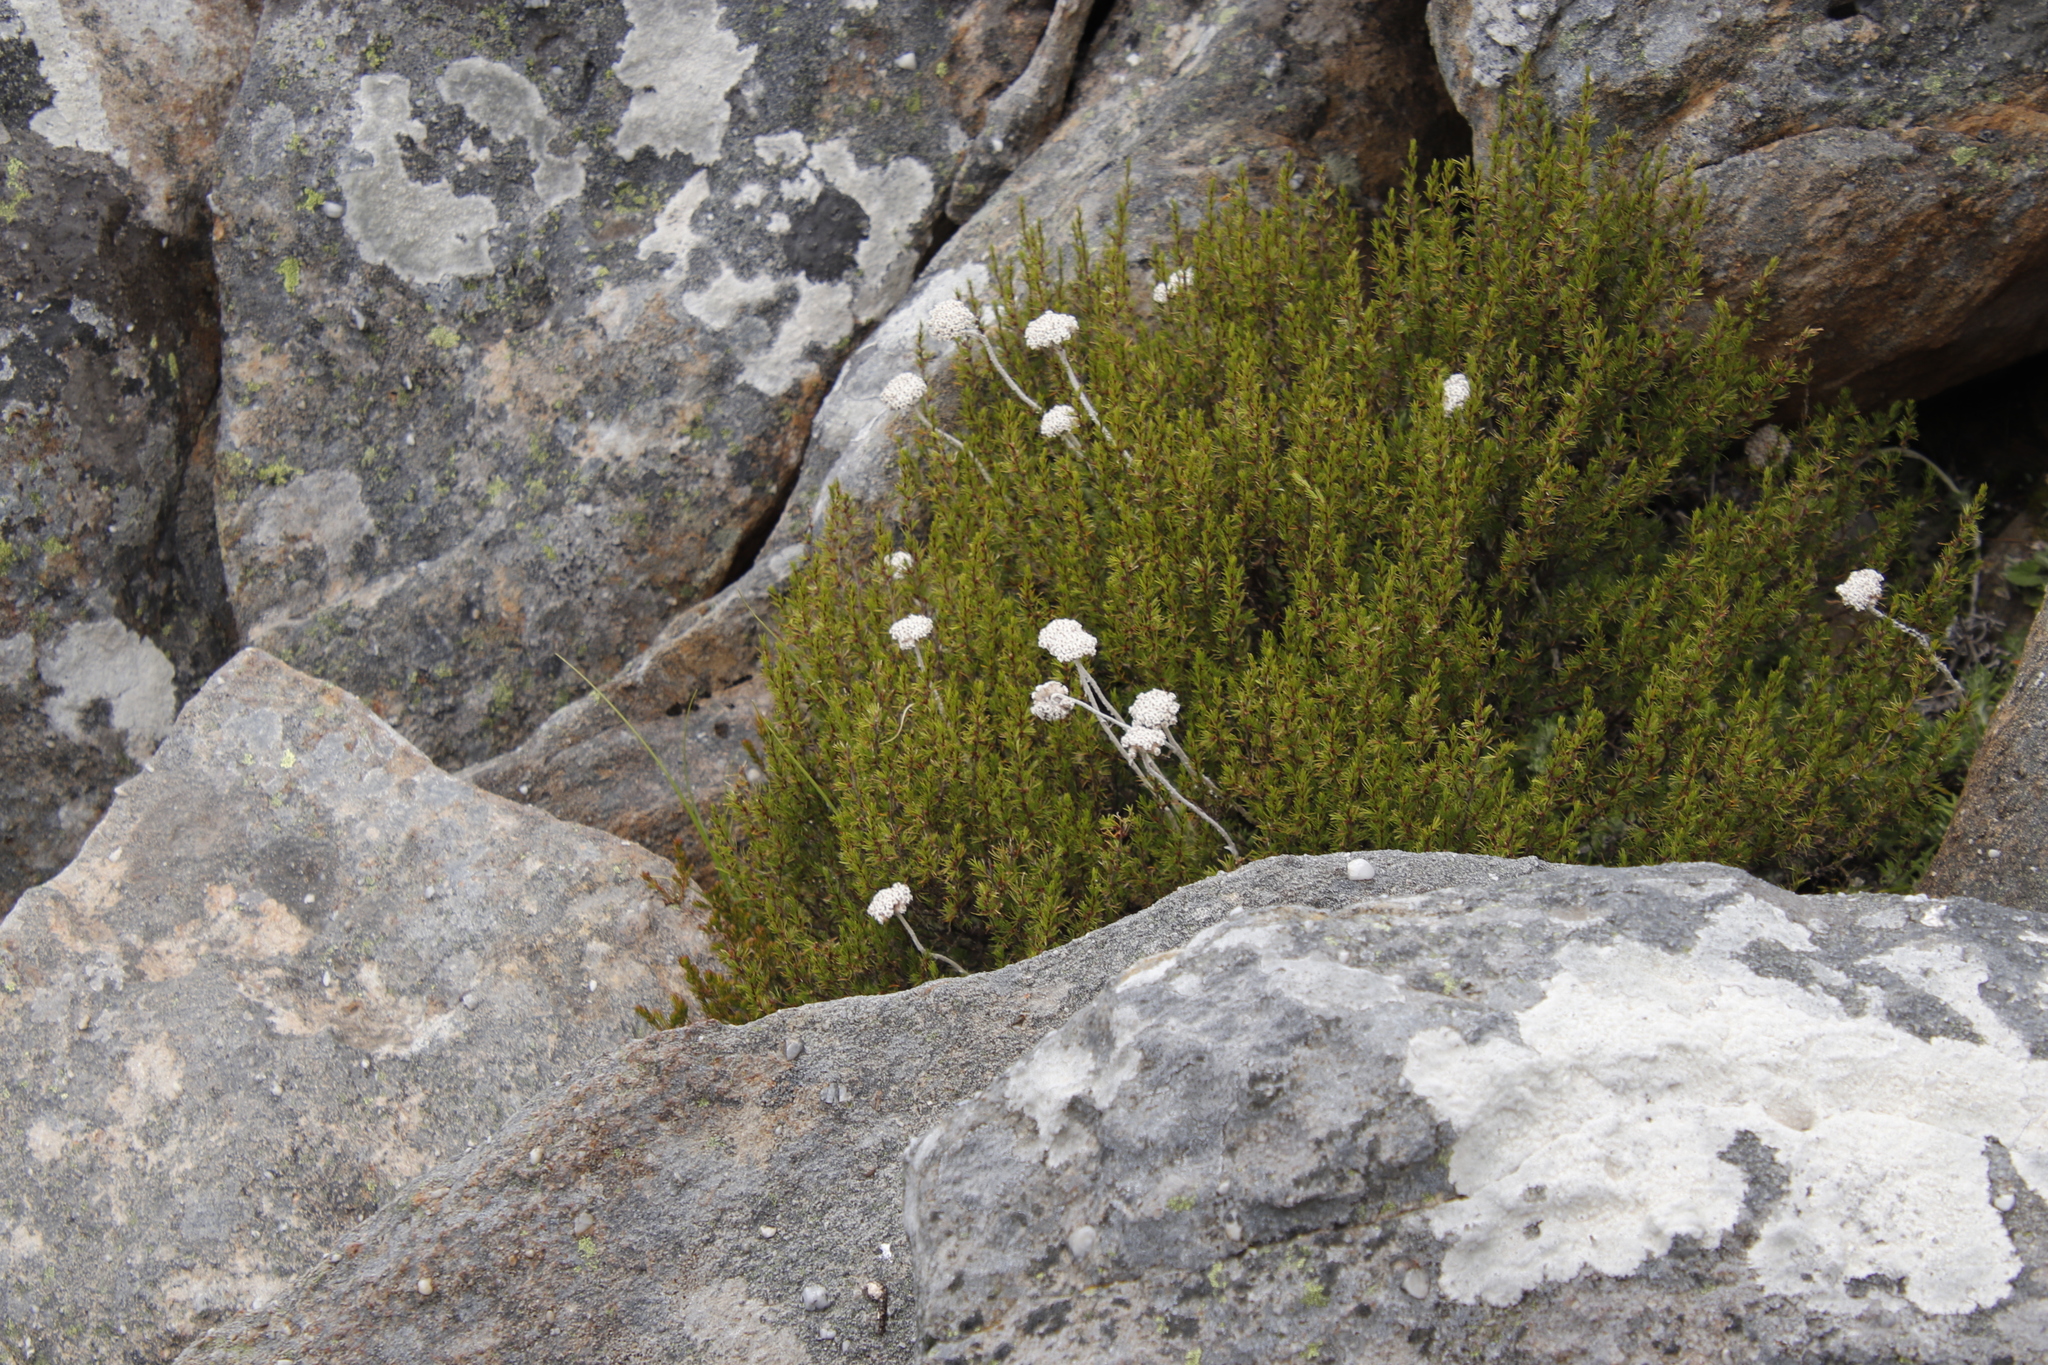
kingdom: Plantae
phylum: Tracheophyta
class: Magnoliopsida
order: Asterales
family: Asteraceae
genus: Anaxeton
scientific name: Anaxeton asperum
